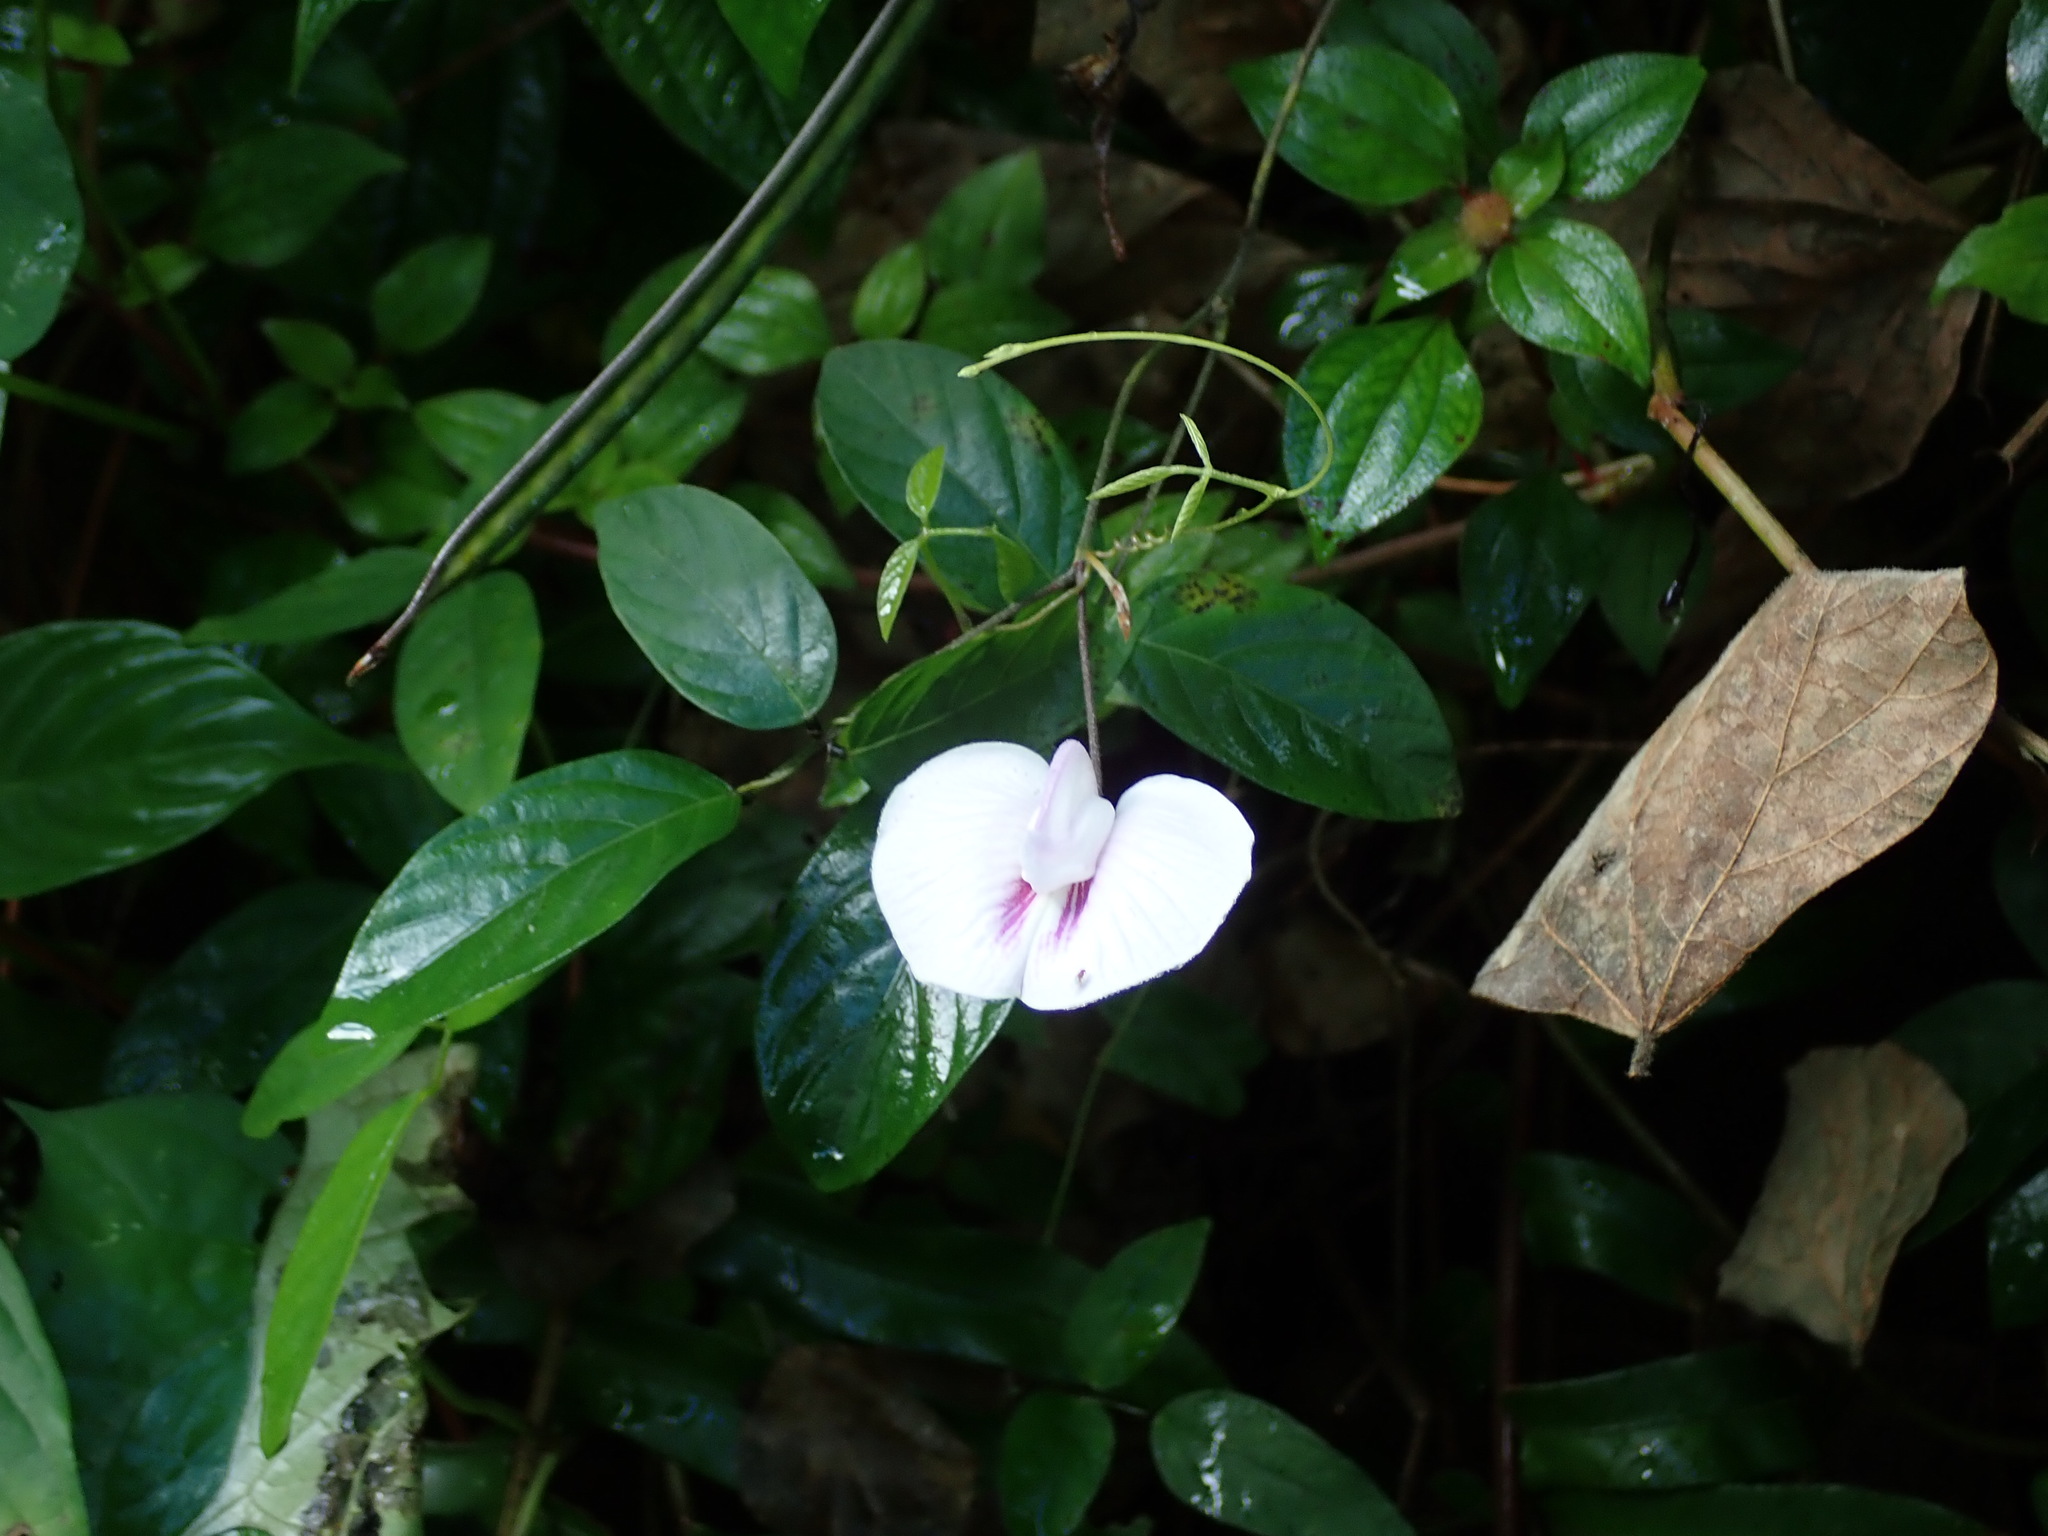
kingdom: Plantae
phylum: Tracheophyta
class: Magnoliopsida
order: Fabales
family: Fabaceae
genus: Centrosema
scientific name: Centrosema pubescens
